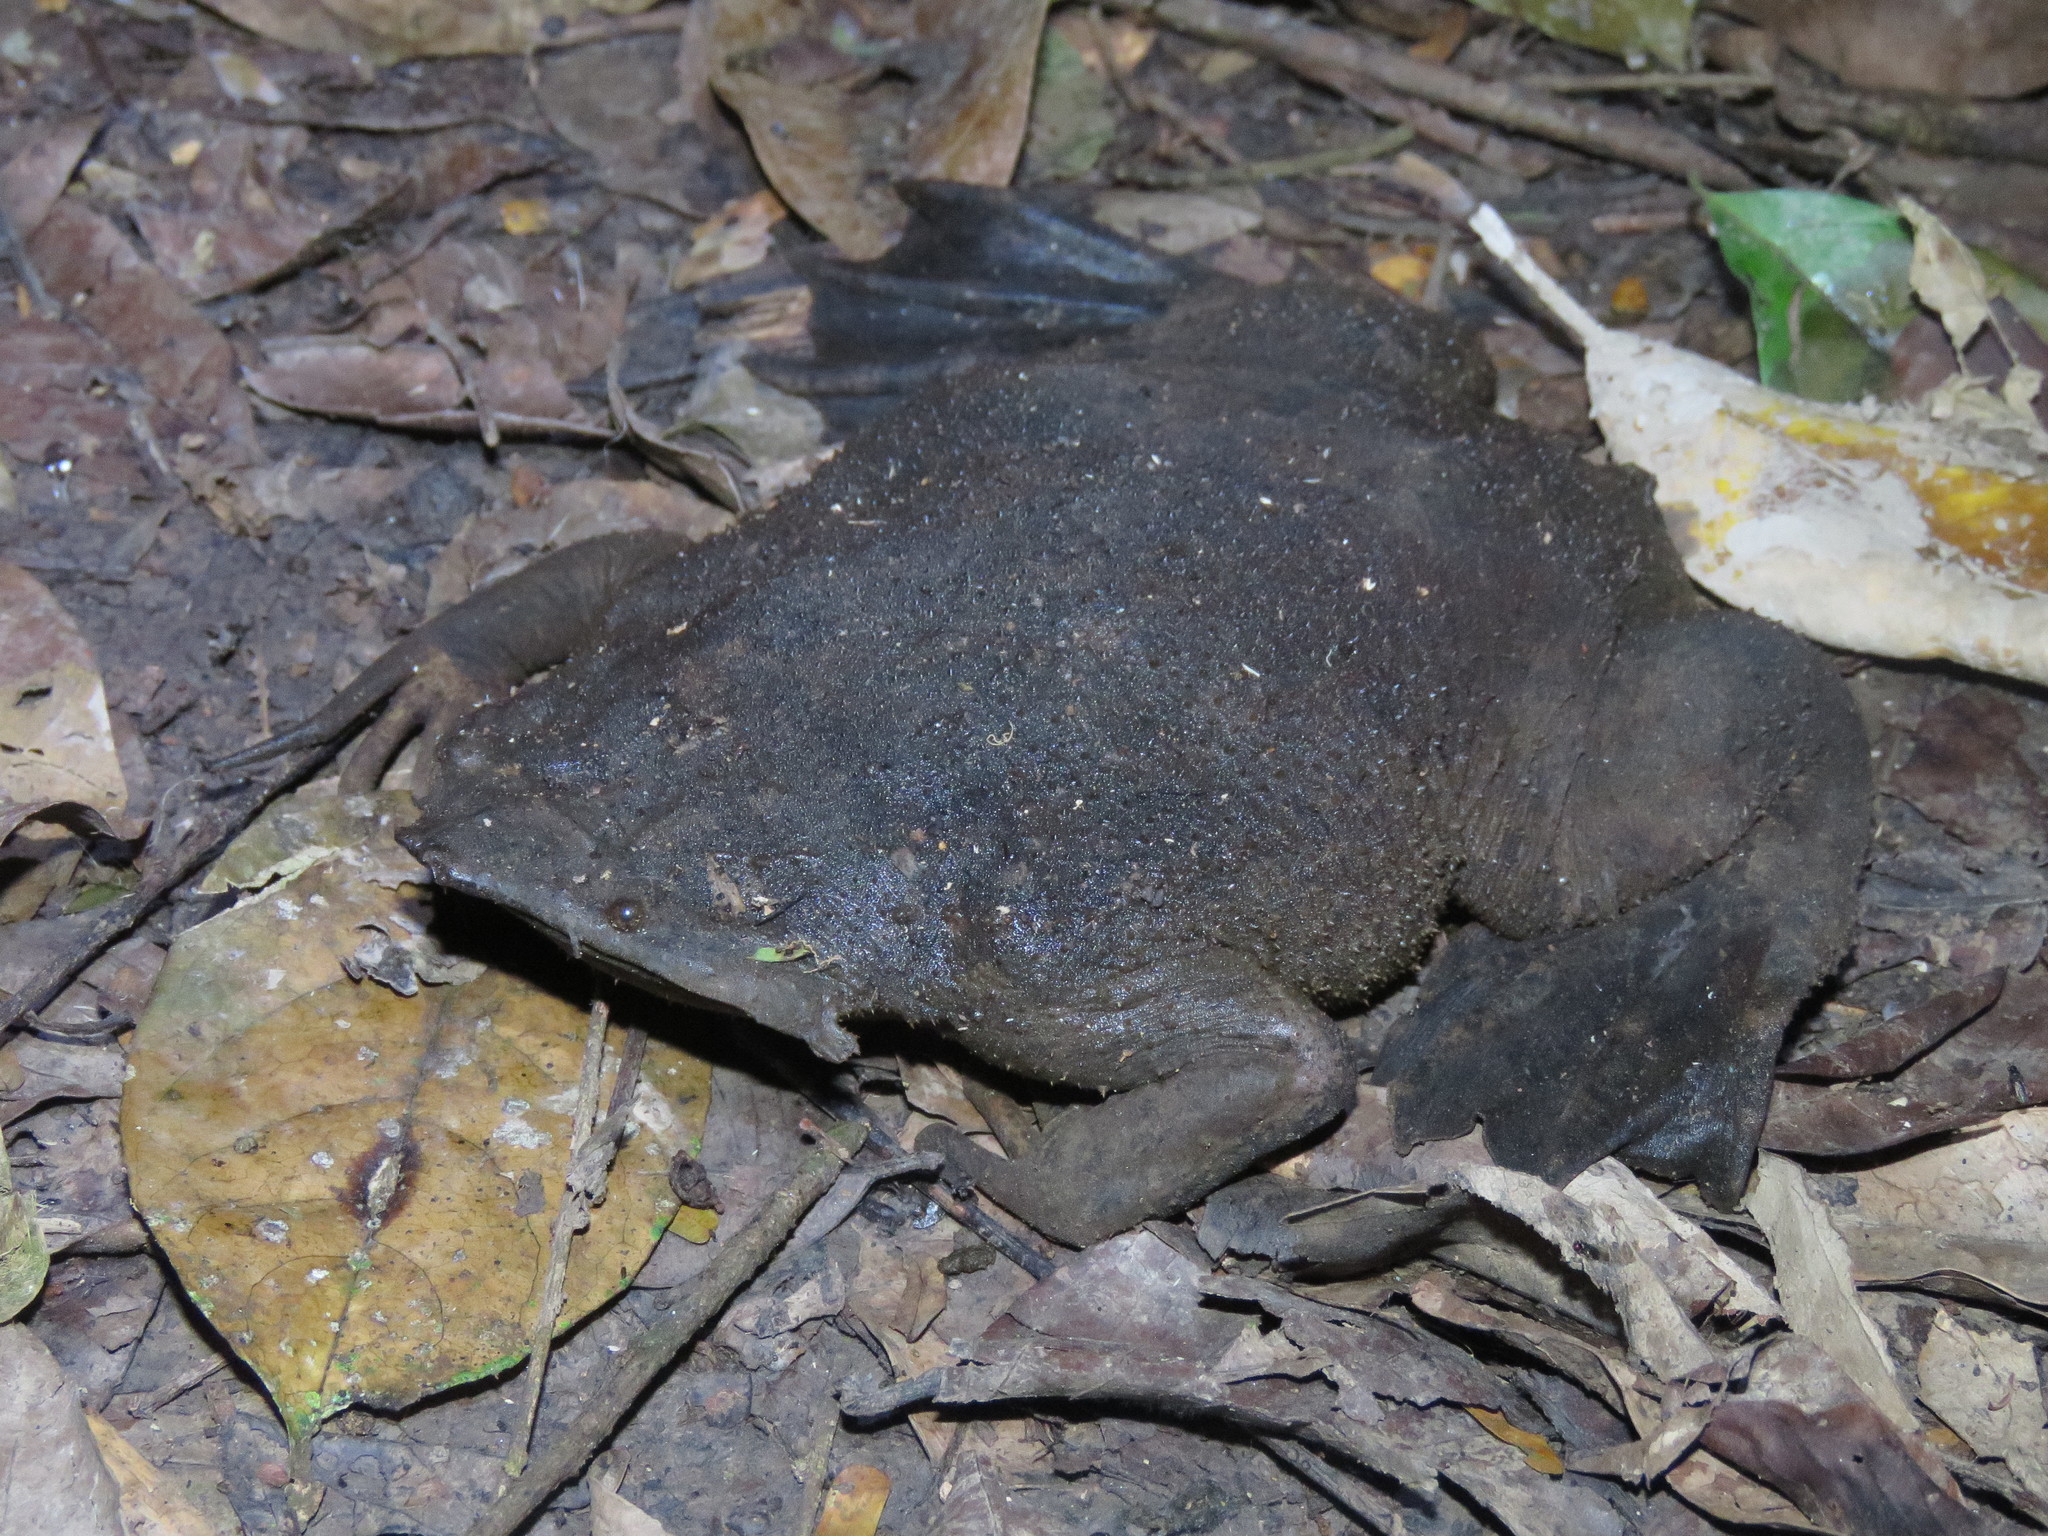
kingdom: Animalia
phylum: Chordata
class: Amphibia
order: Anura
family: Pipidae
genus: Pipa
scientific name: Pipa pipa
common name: Surinam toad
